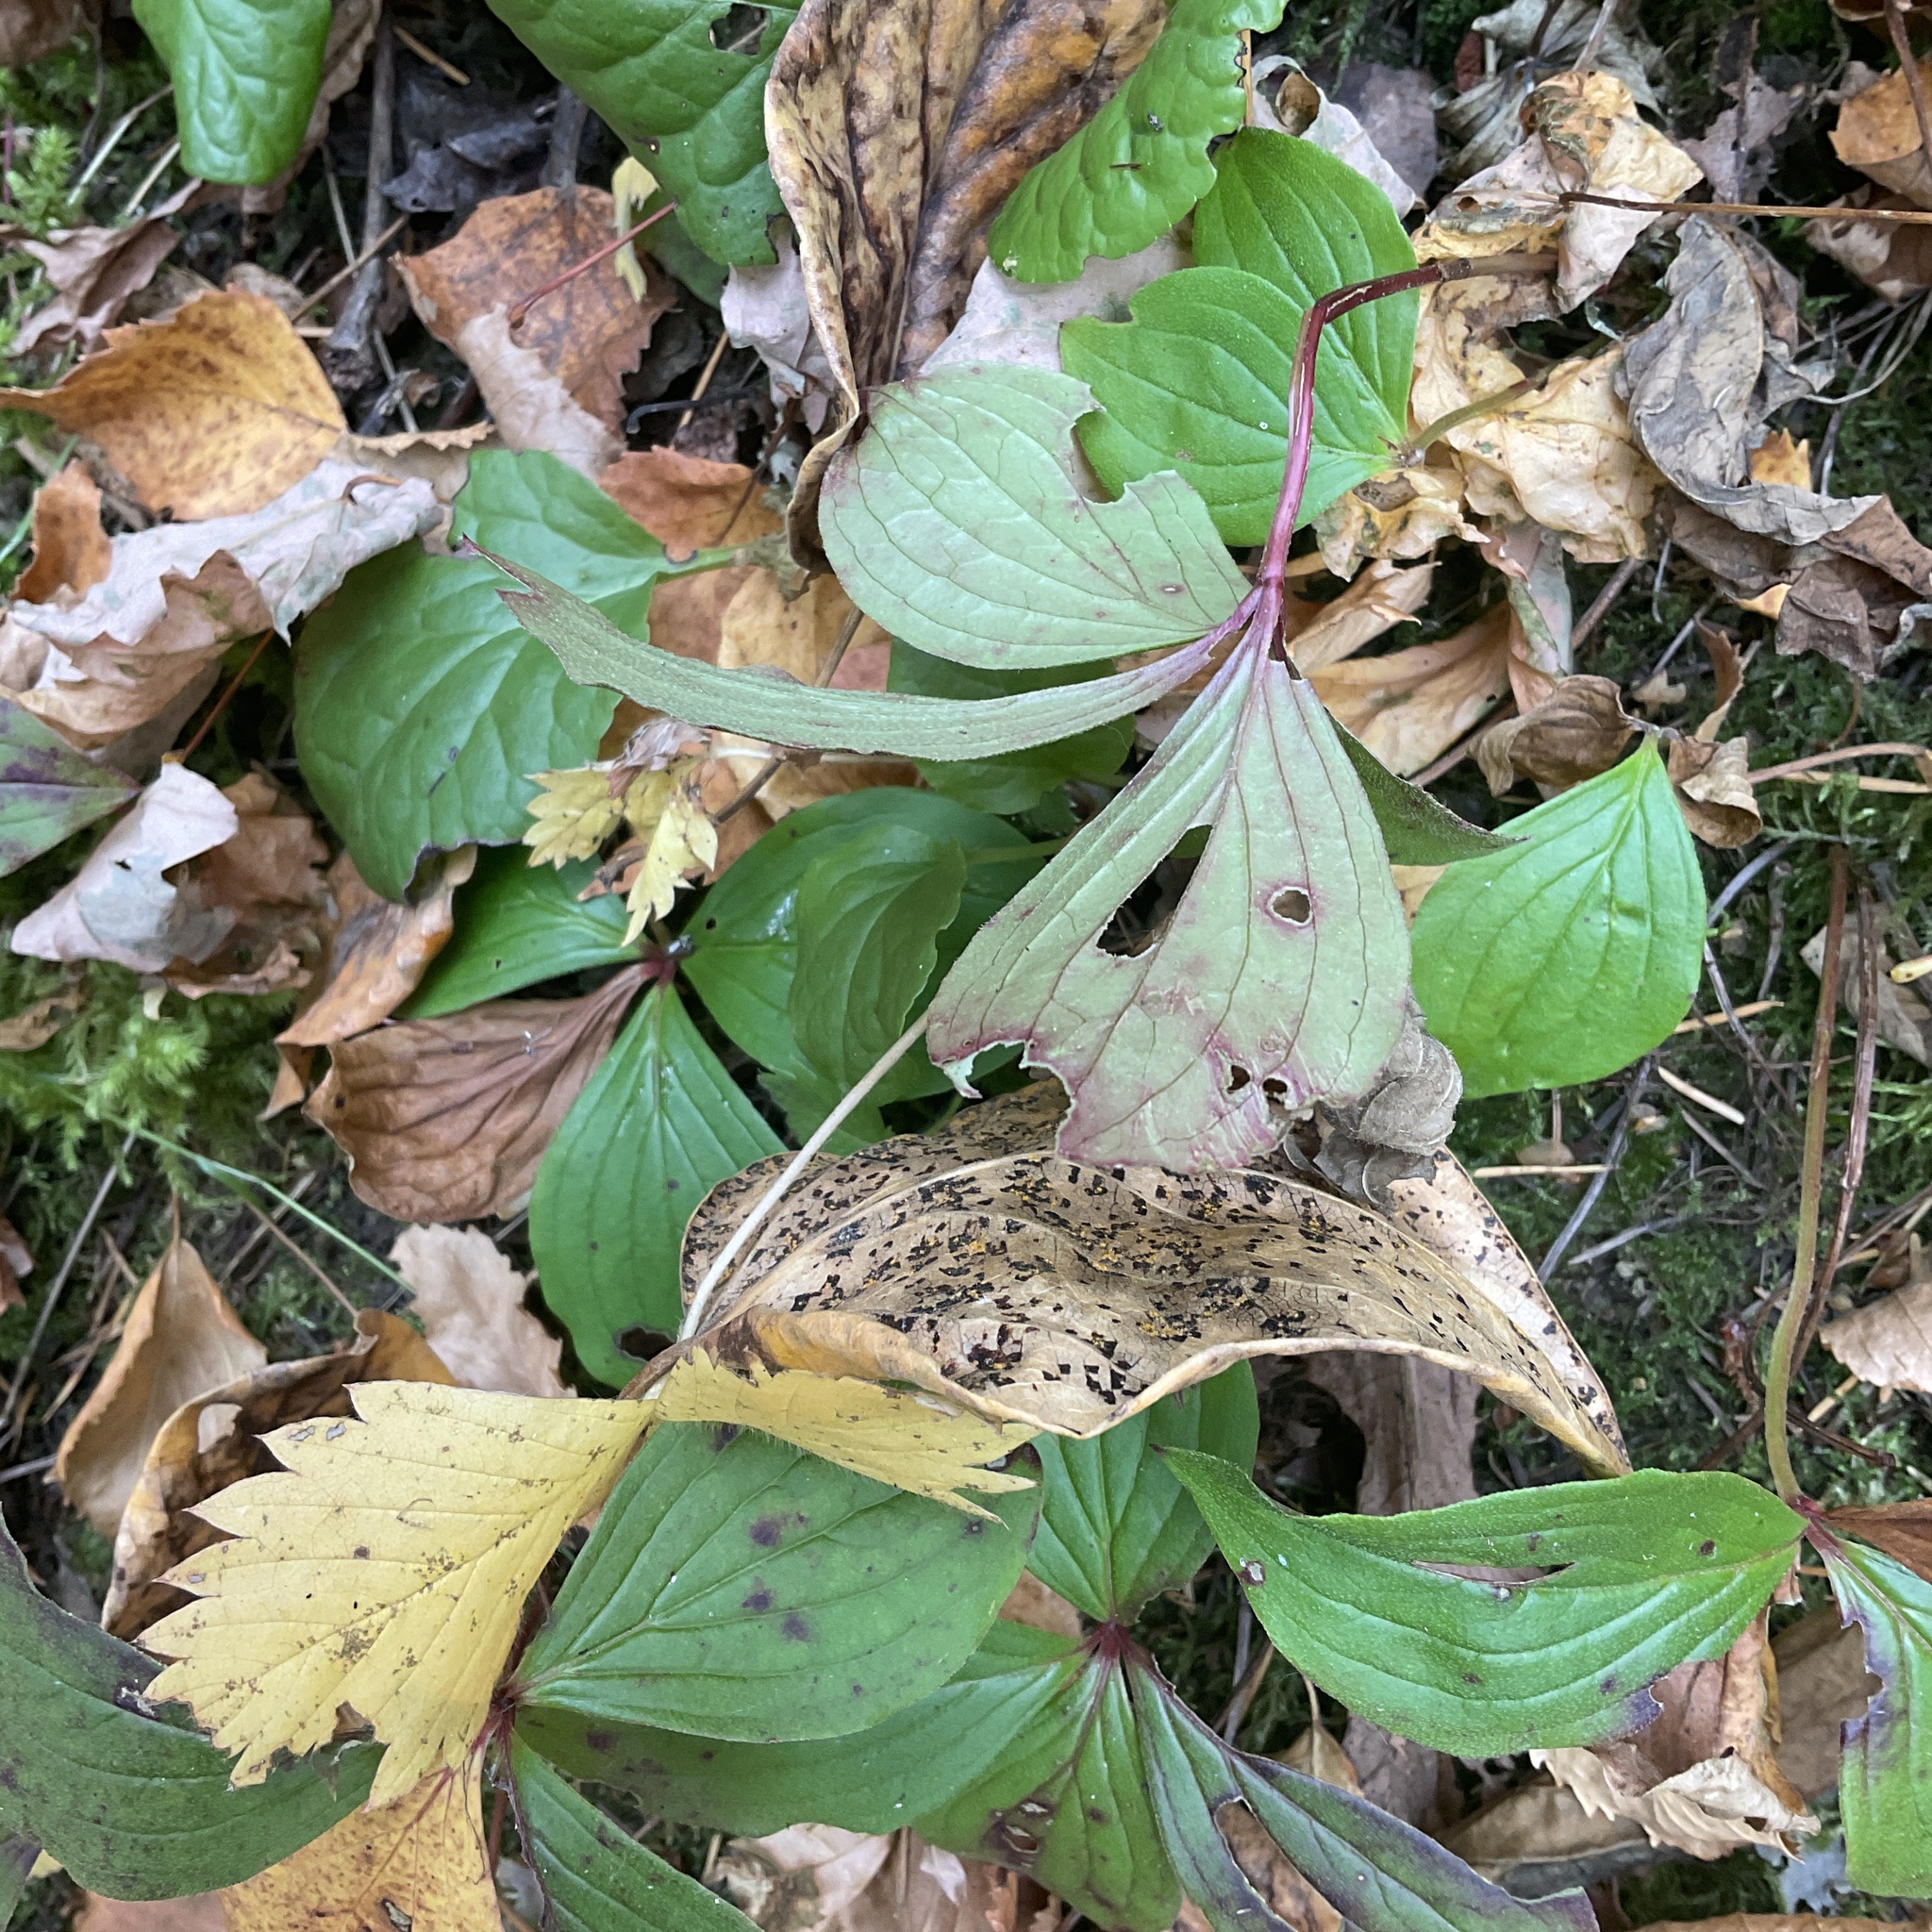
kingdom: Plantae
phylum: Tracheophyta
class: Magnoliopsida
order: Cornales
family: Cornaceae
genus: Cornus
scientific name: Cornus canadensis
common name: Creeping dogwood
